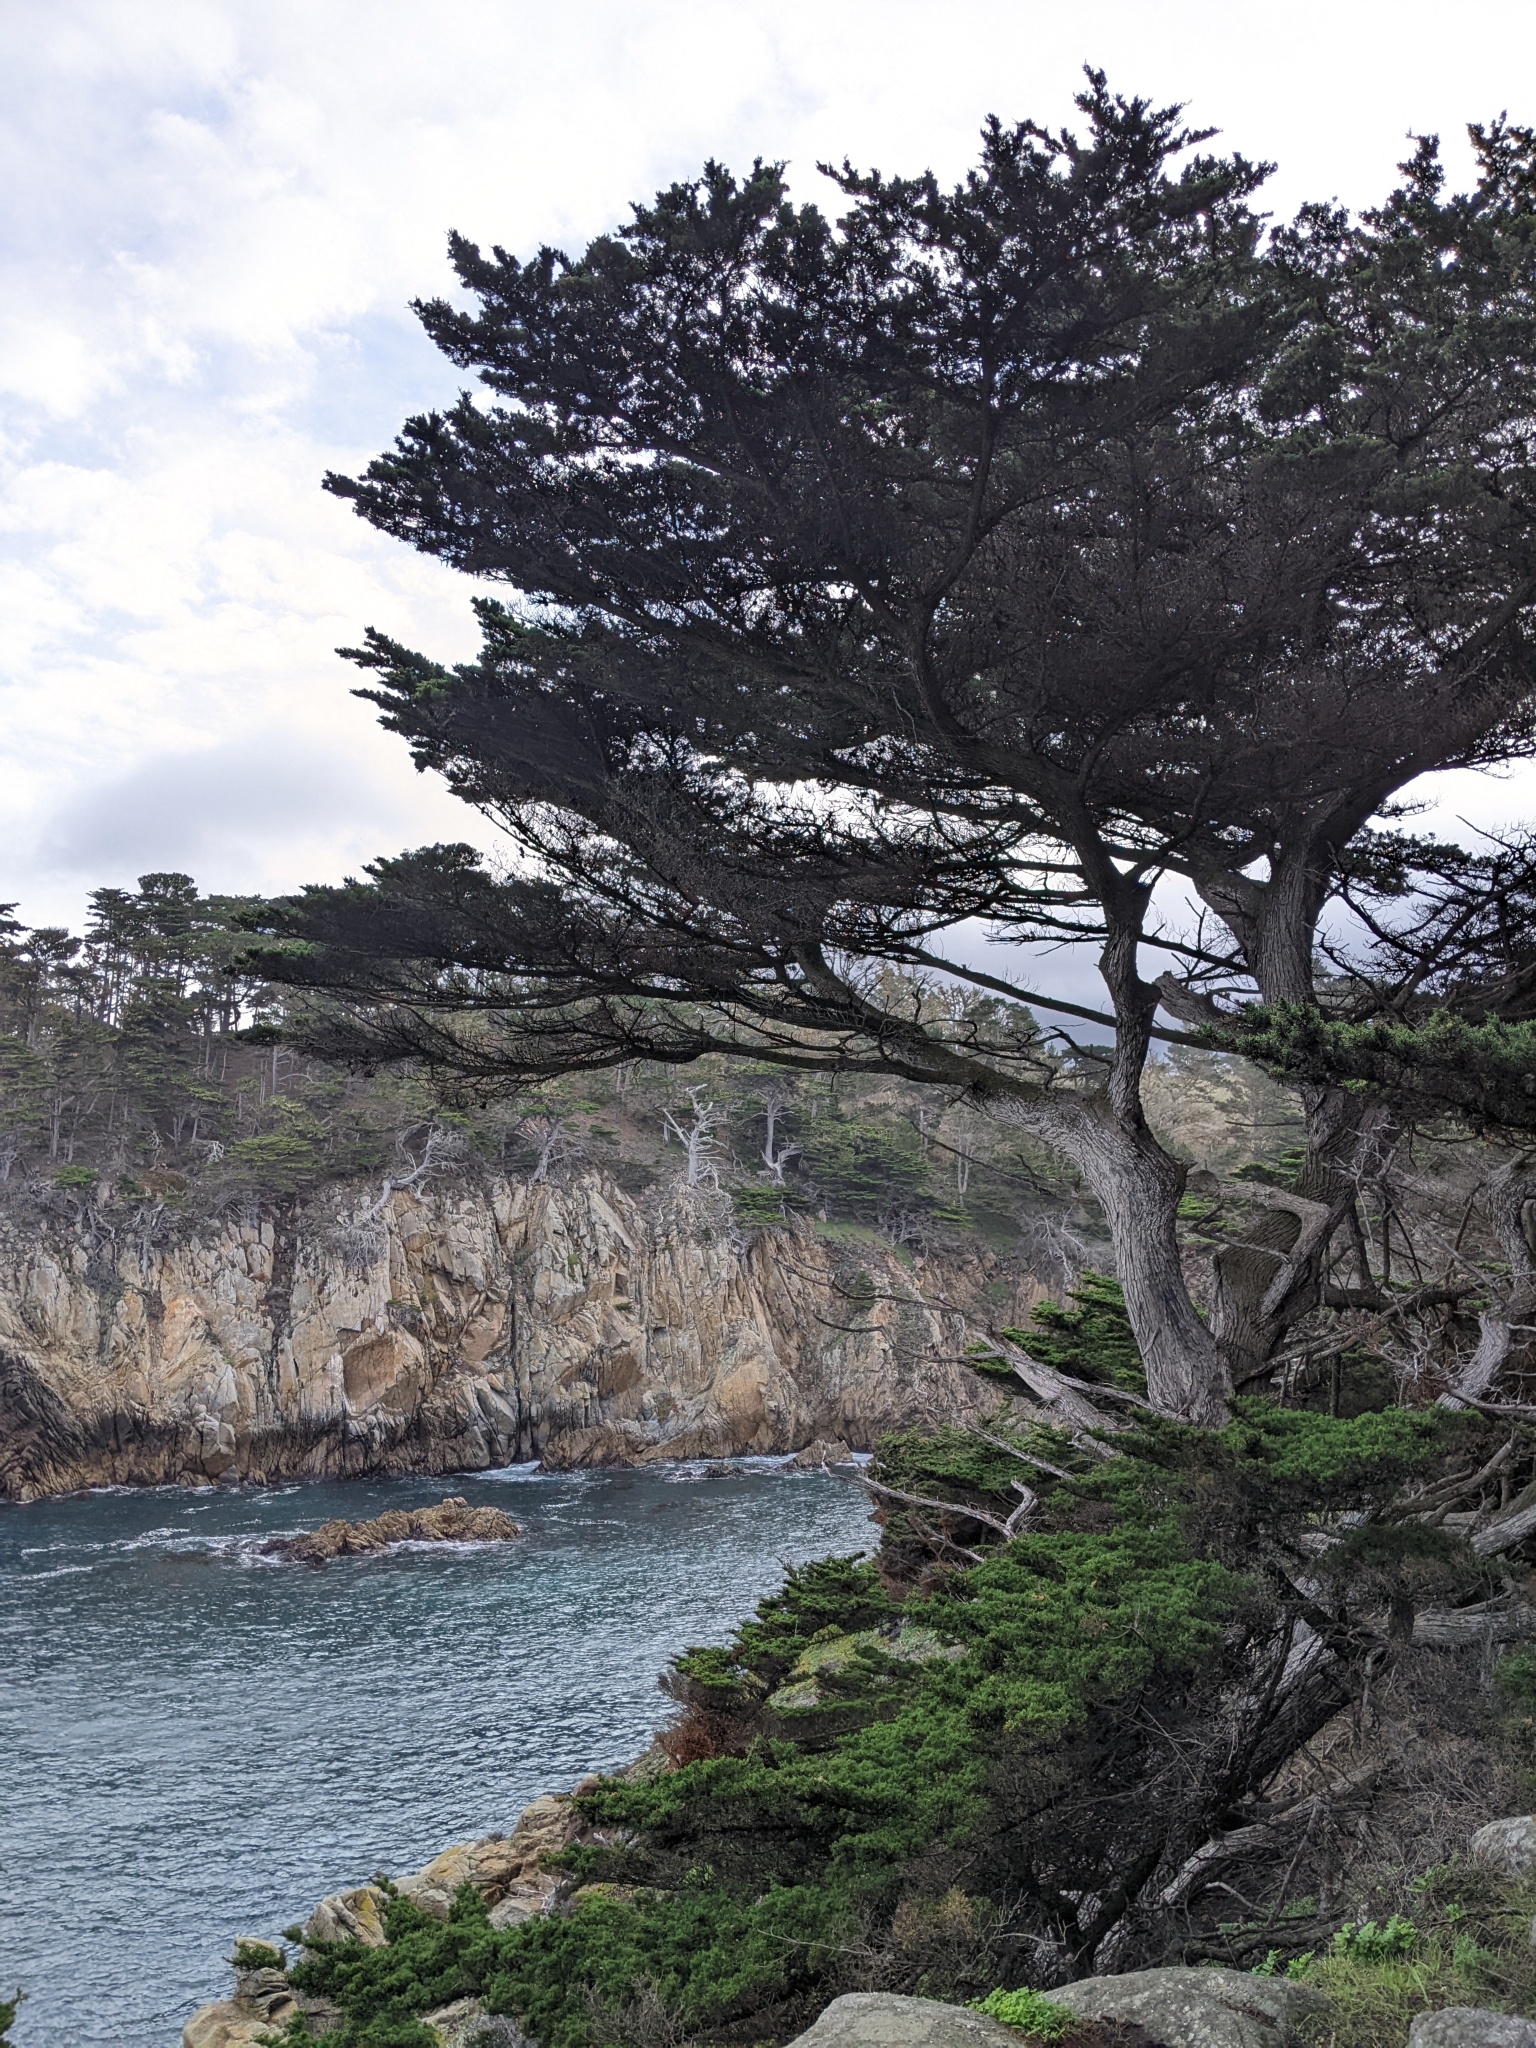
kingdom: Plantae
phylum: Tracheophyta
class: Pinopsida
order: Pinales
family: Cupressaceae
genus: Cupressus
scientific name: Cupressus macrocarpa
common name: Monterey cypress
